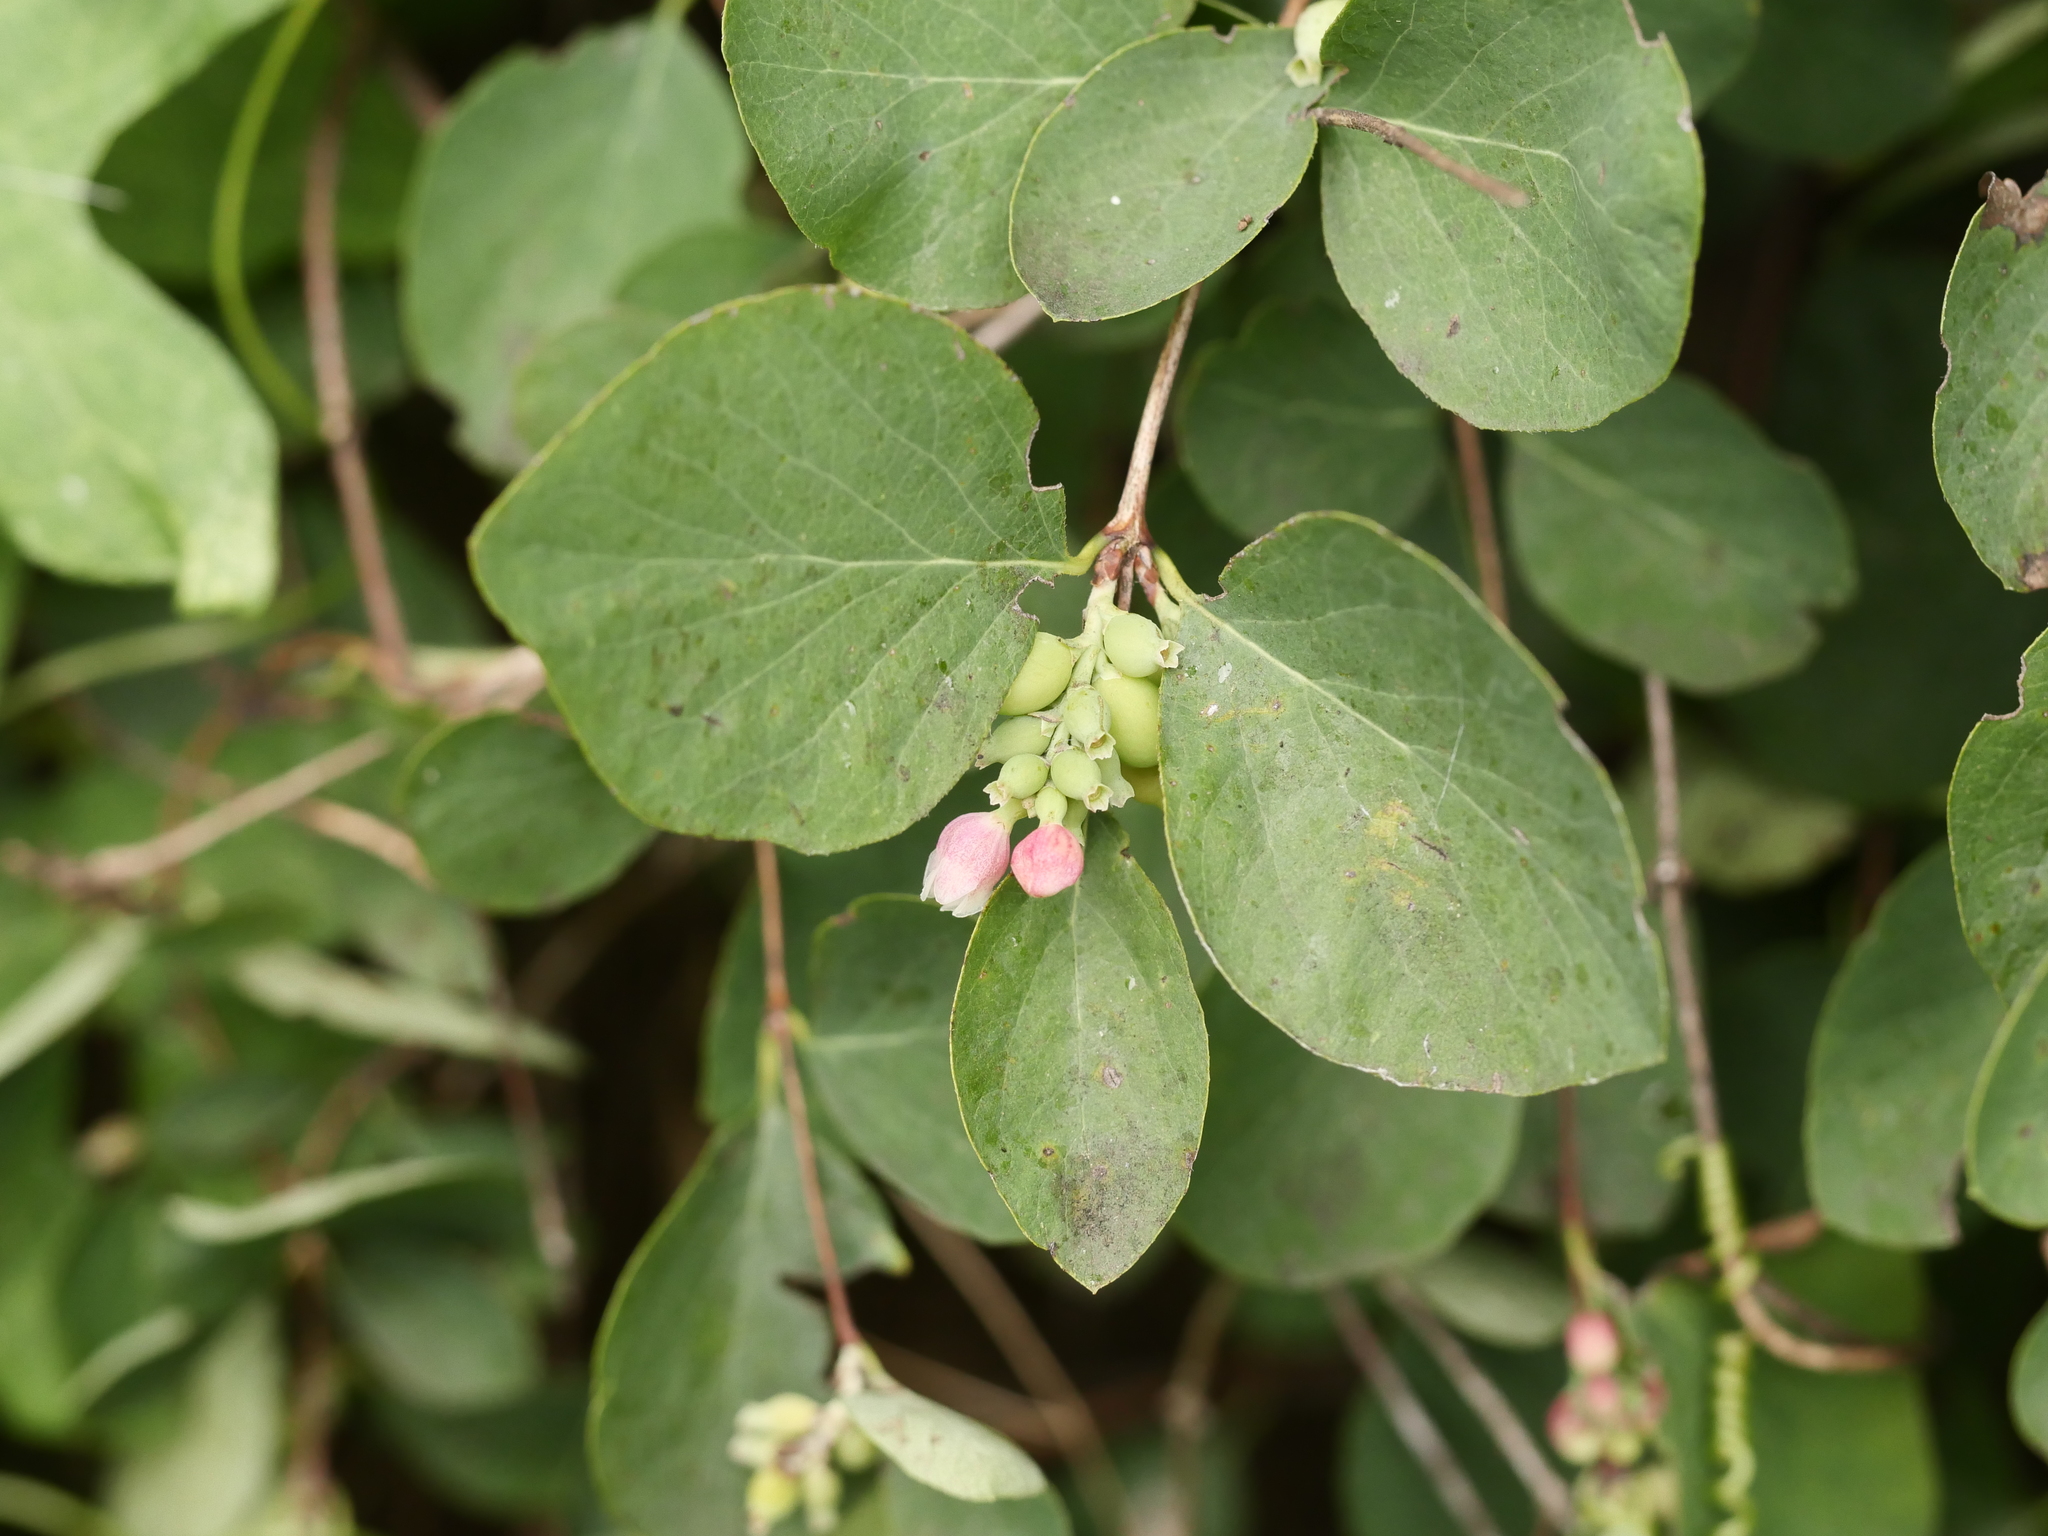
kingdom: Plantae
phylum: Tracheophyta
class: Magnoliopsida
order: Dipsacales
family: Caprifoliaceae
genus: Symphoricarpos
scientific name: Symphoricarpos albus
